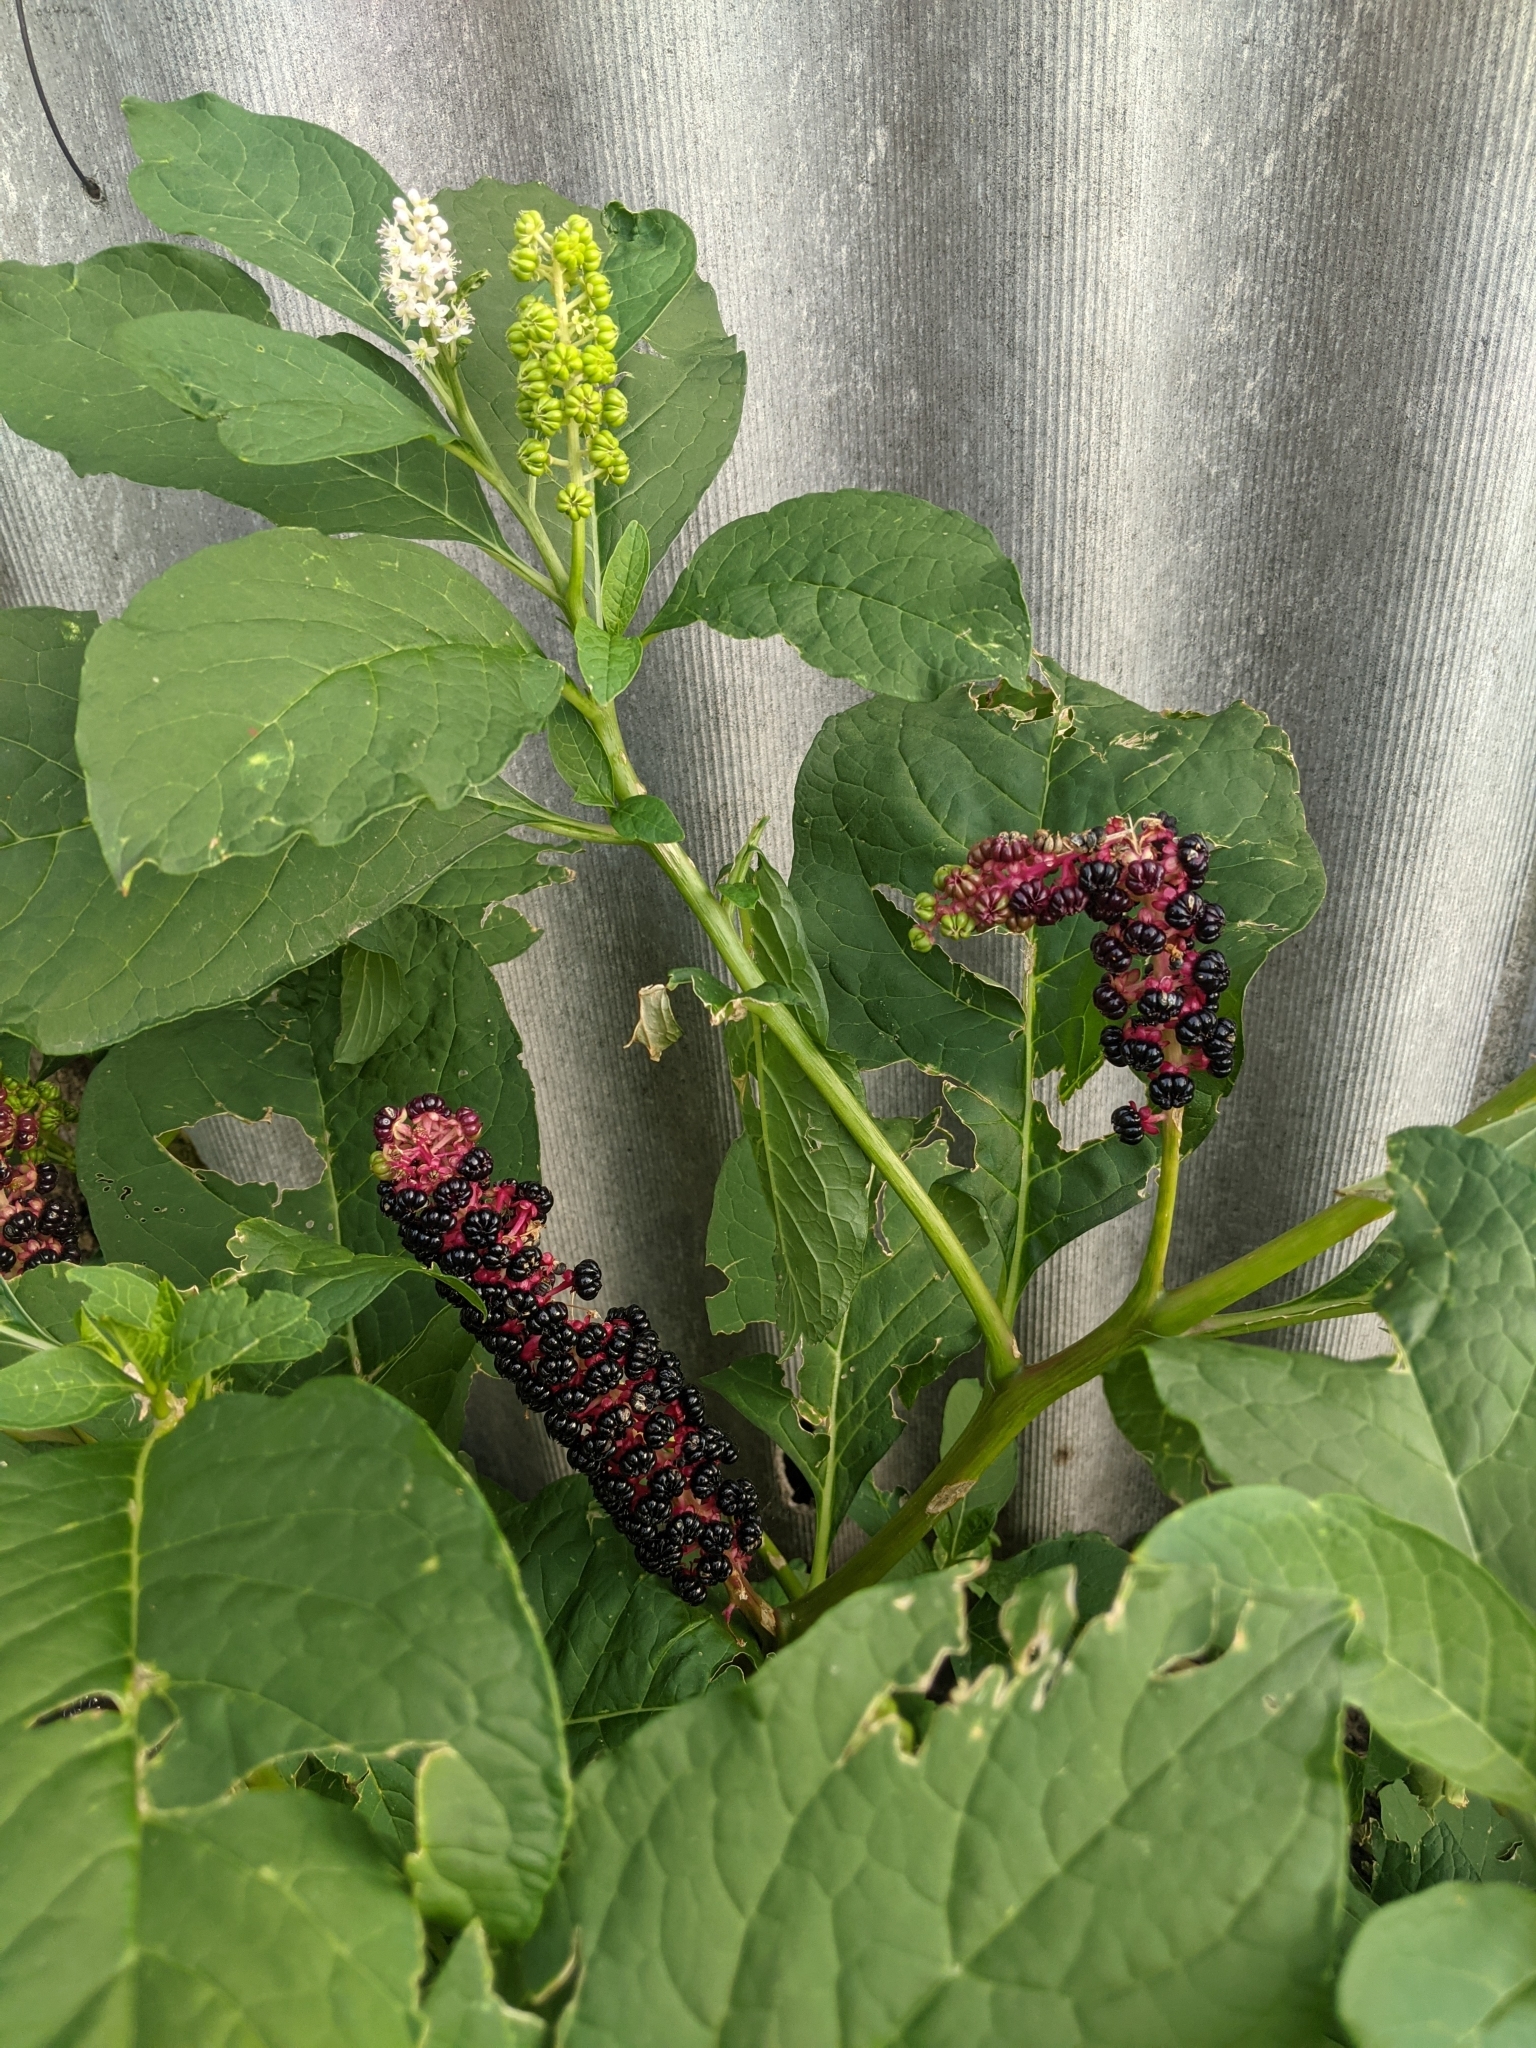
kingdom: Plantae
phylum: Tracheophyta
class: Magnoliopsida
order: Caryophyllales
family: Phytolaccaceae
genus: Phytolacca
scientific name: Phytolacca acinosa
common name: Indian pokeweed
